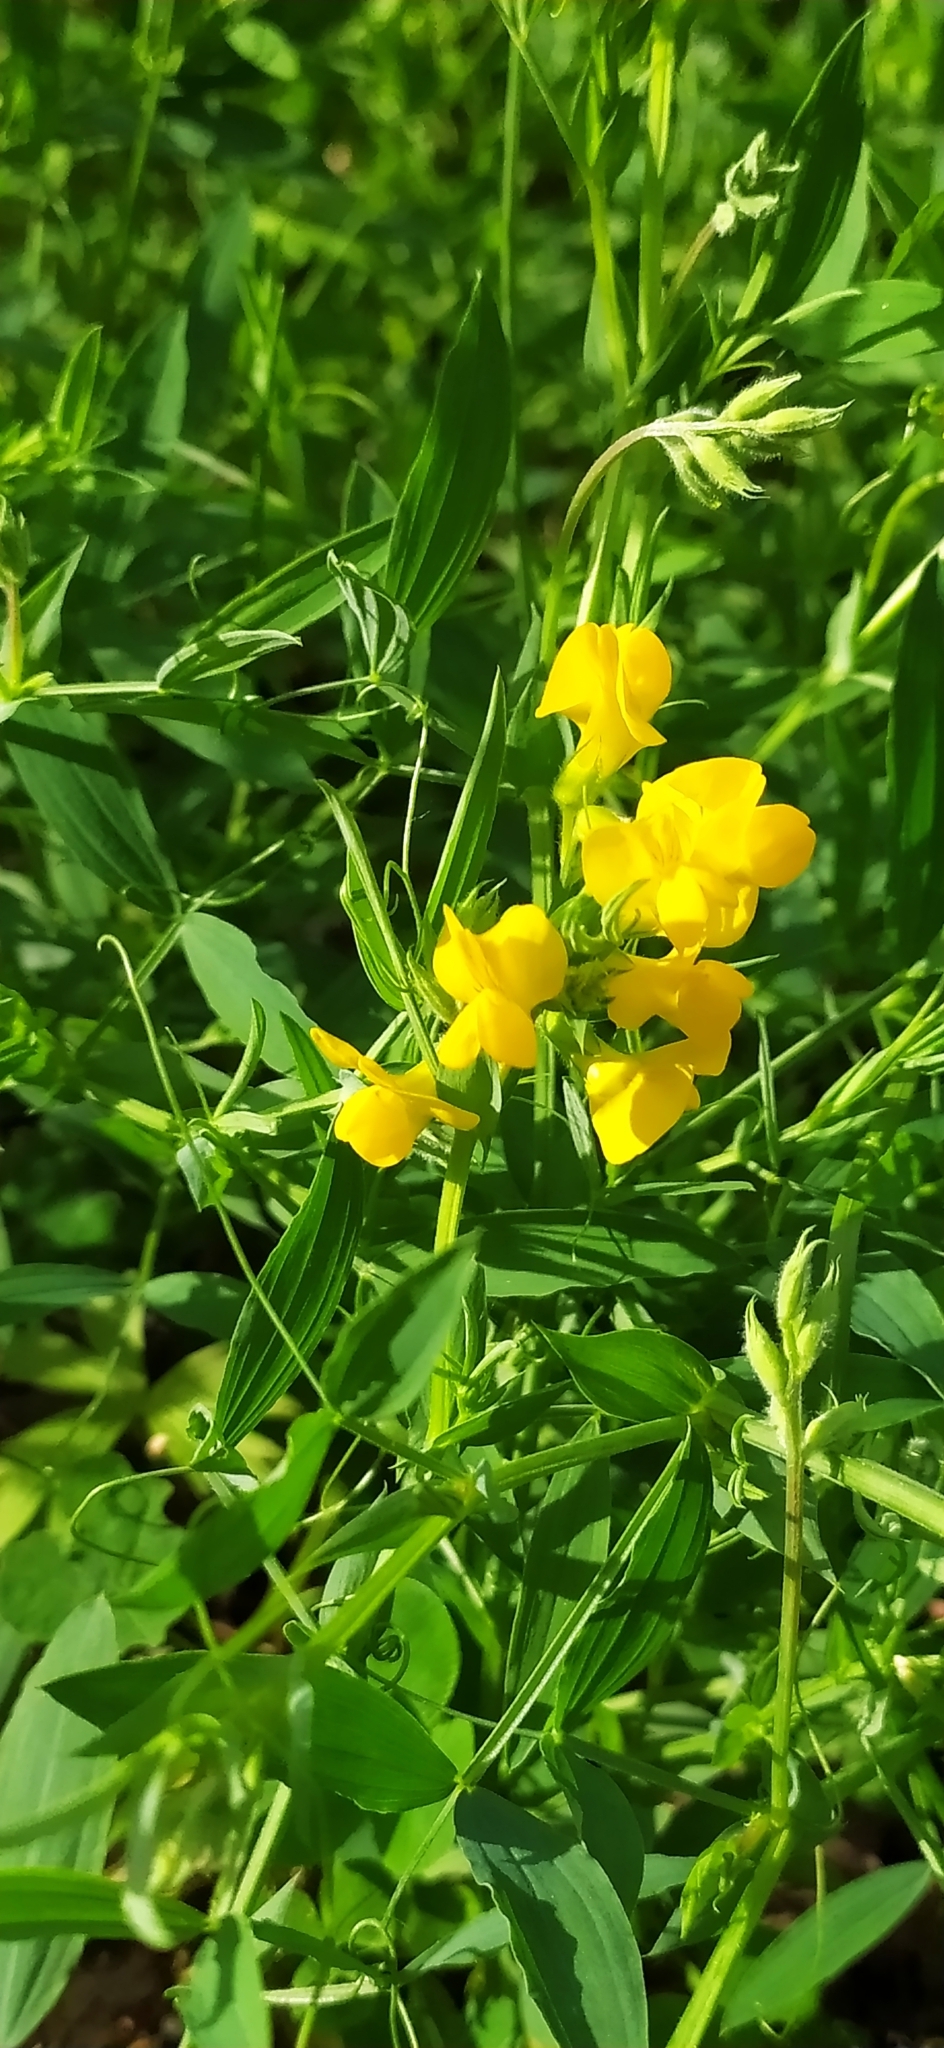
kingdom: Plantae
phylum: Tracheophyta
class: Magnoliopsida
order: Fabales
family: Fabaceae
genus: Lathyrus
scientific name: Lathyrus pratensis
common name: Meadow vetchling
